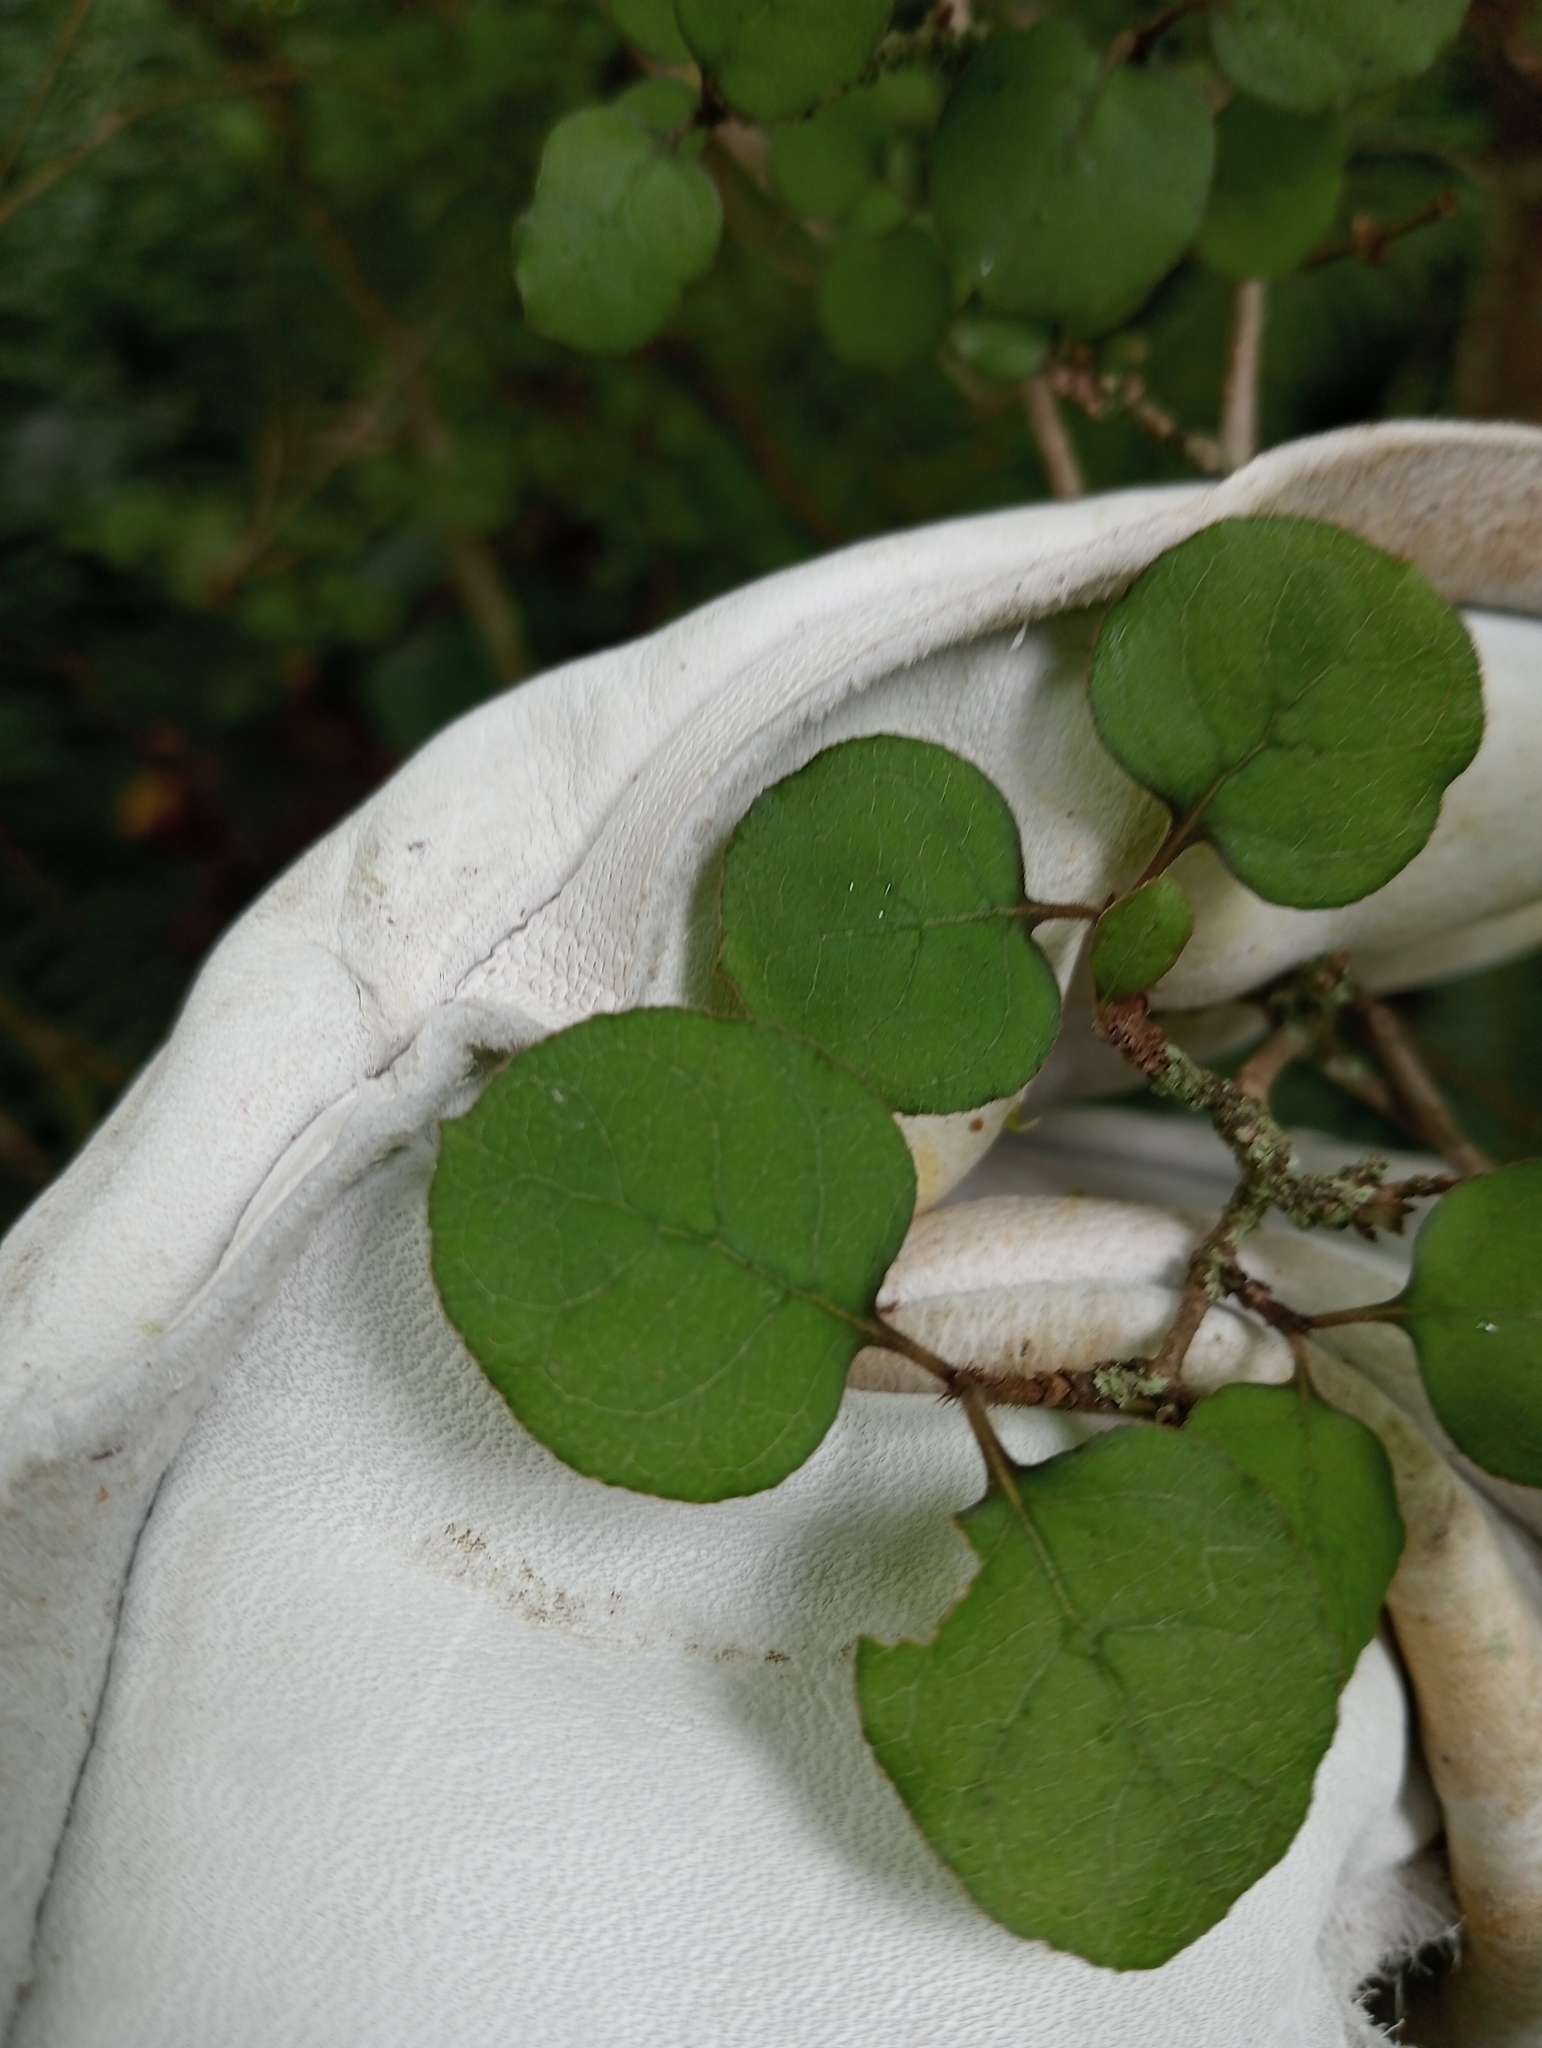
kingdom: Plantae
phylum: Tracheophyta
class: Magnoliopsida
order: Gentianales
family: Rubiaceae
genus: Coprosma
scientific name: Coprosma rotundifolia
